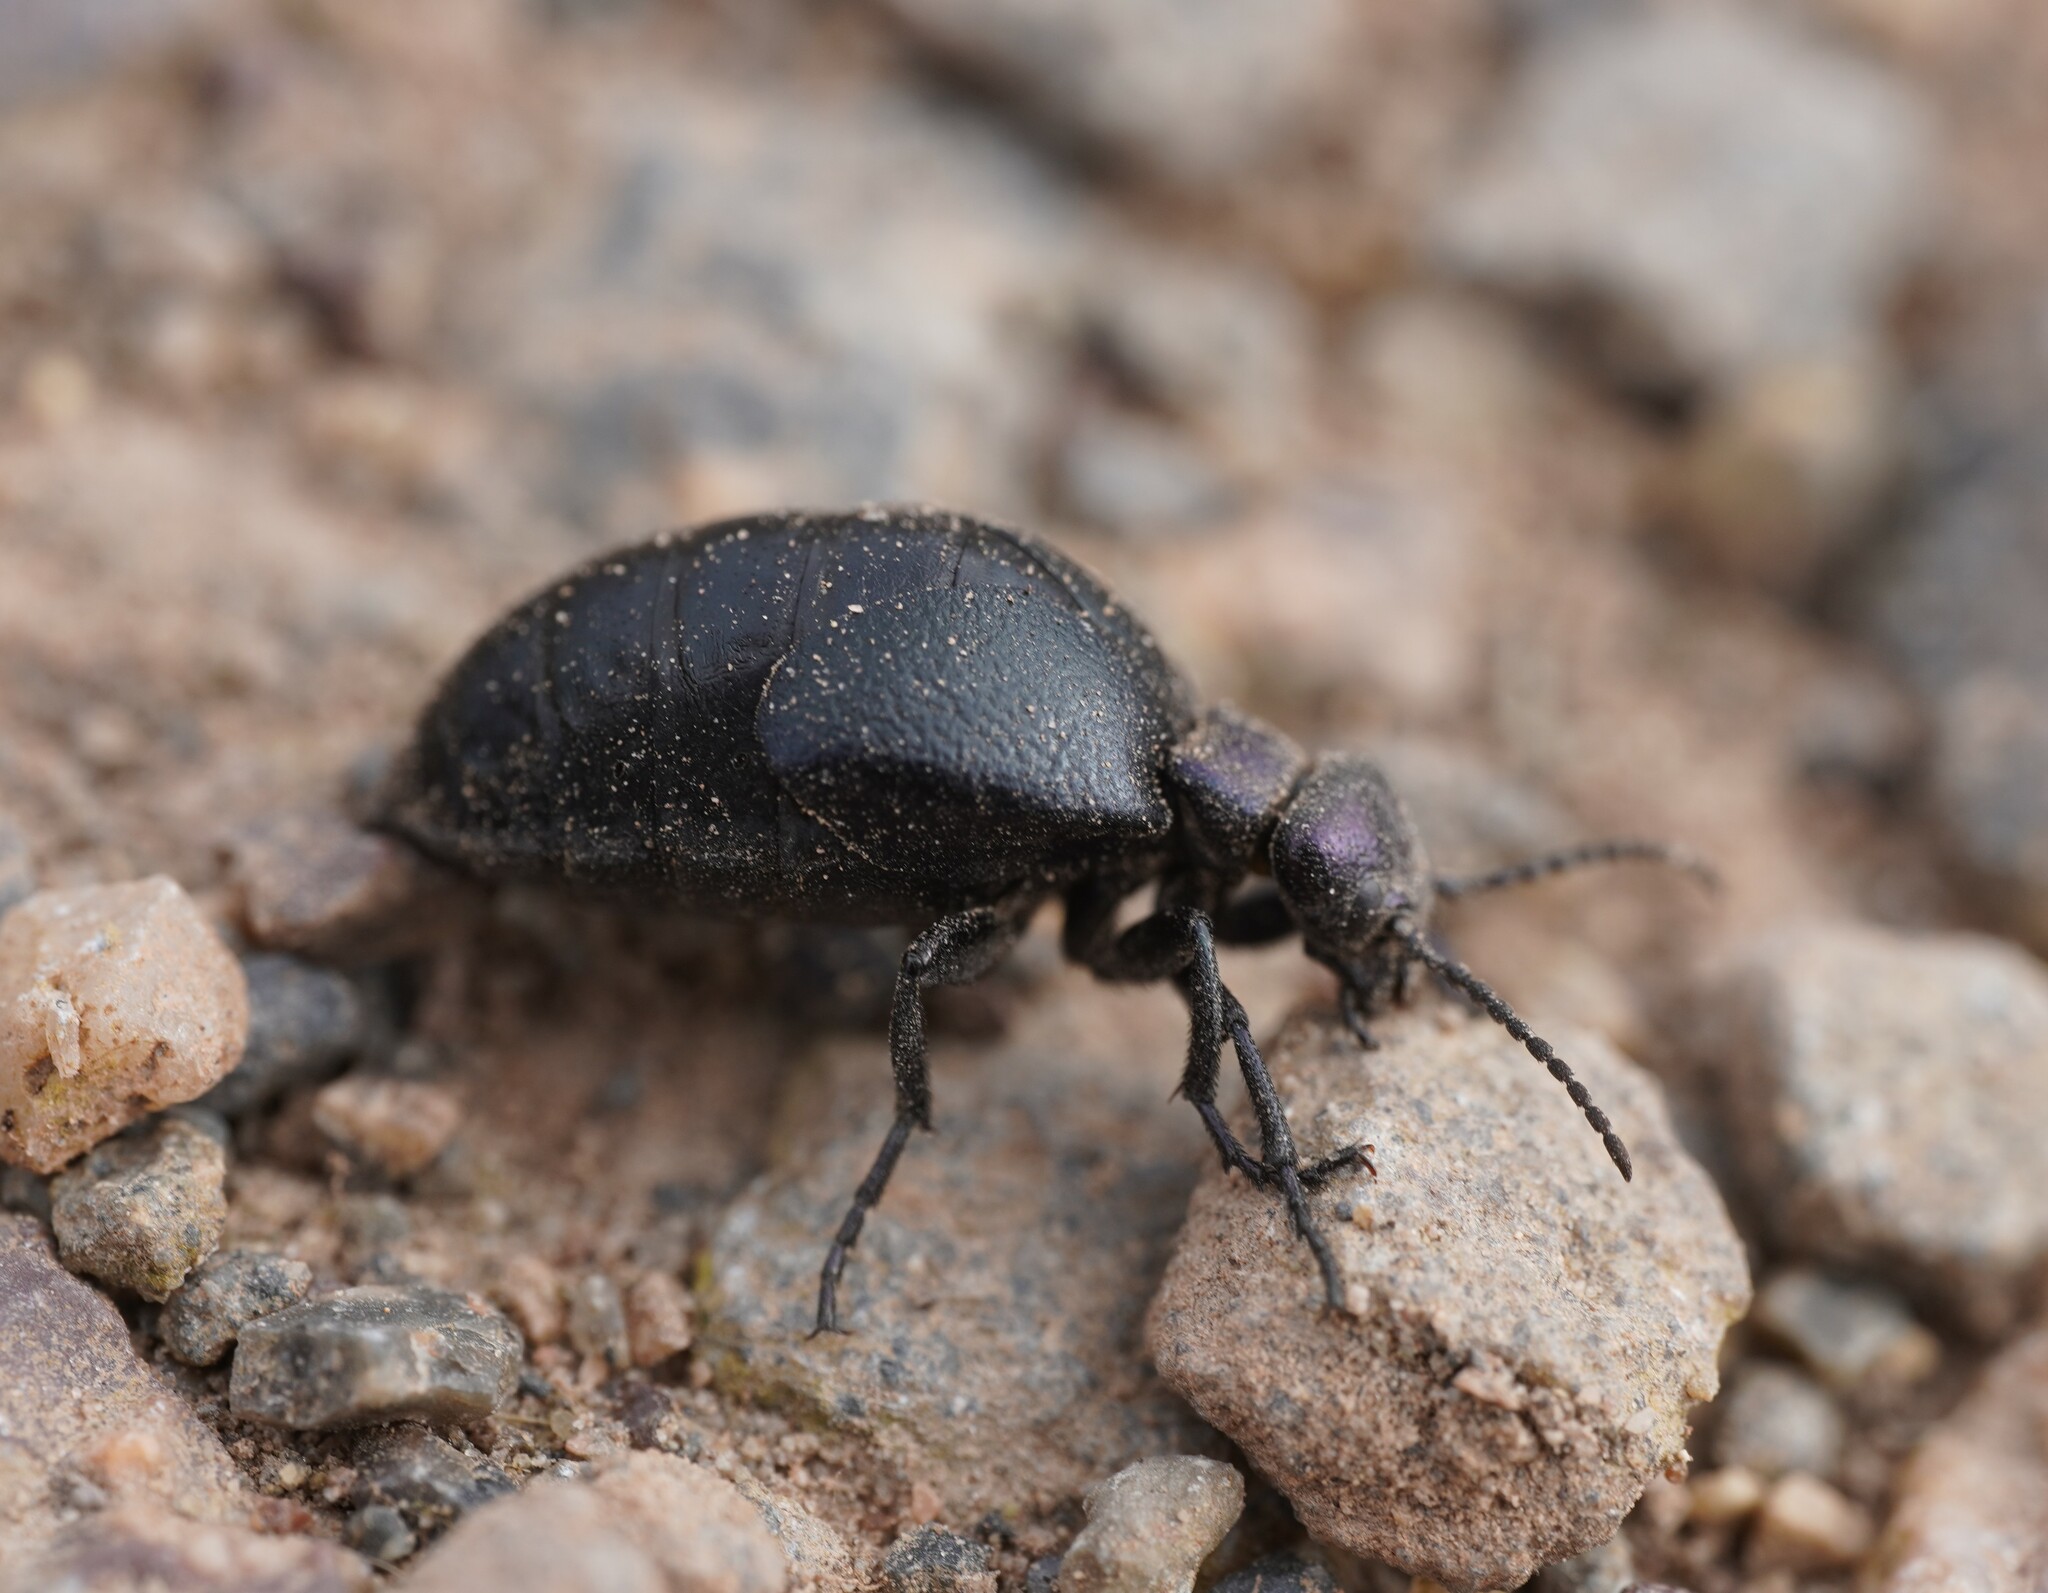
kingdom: Animalia
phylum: Arthropoda
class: Insecta
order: Coleoptera
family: Meloidae
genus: Meloe
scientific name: Meloe decorus
